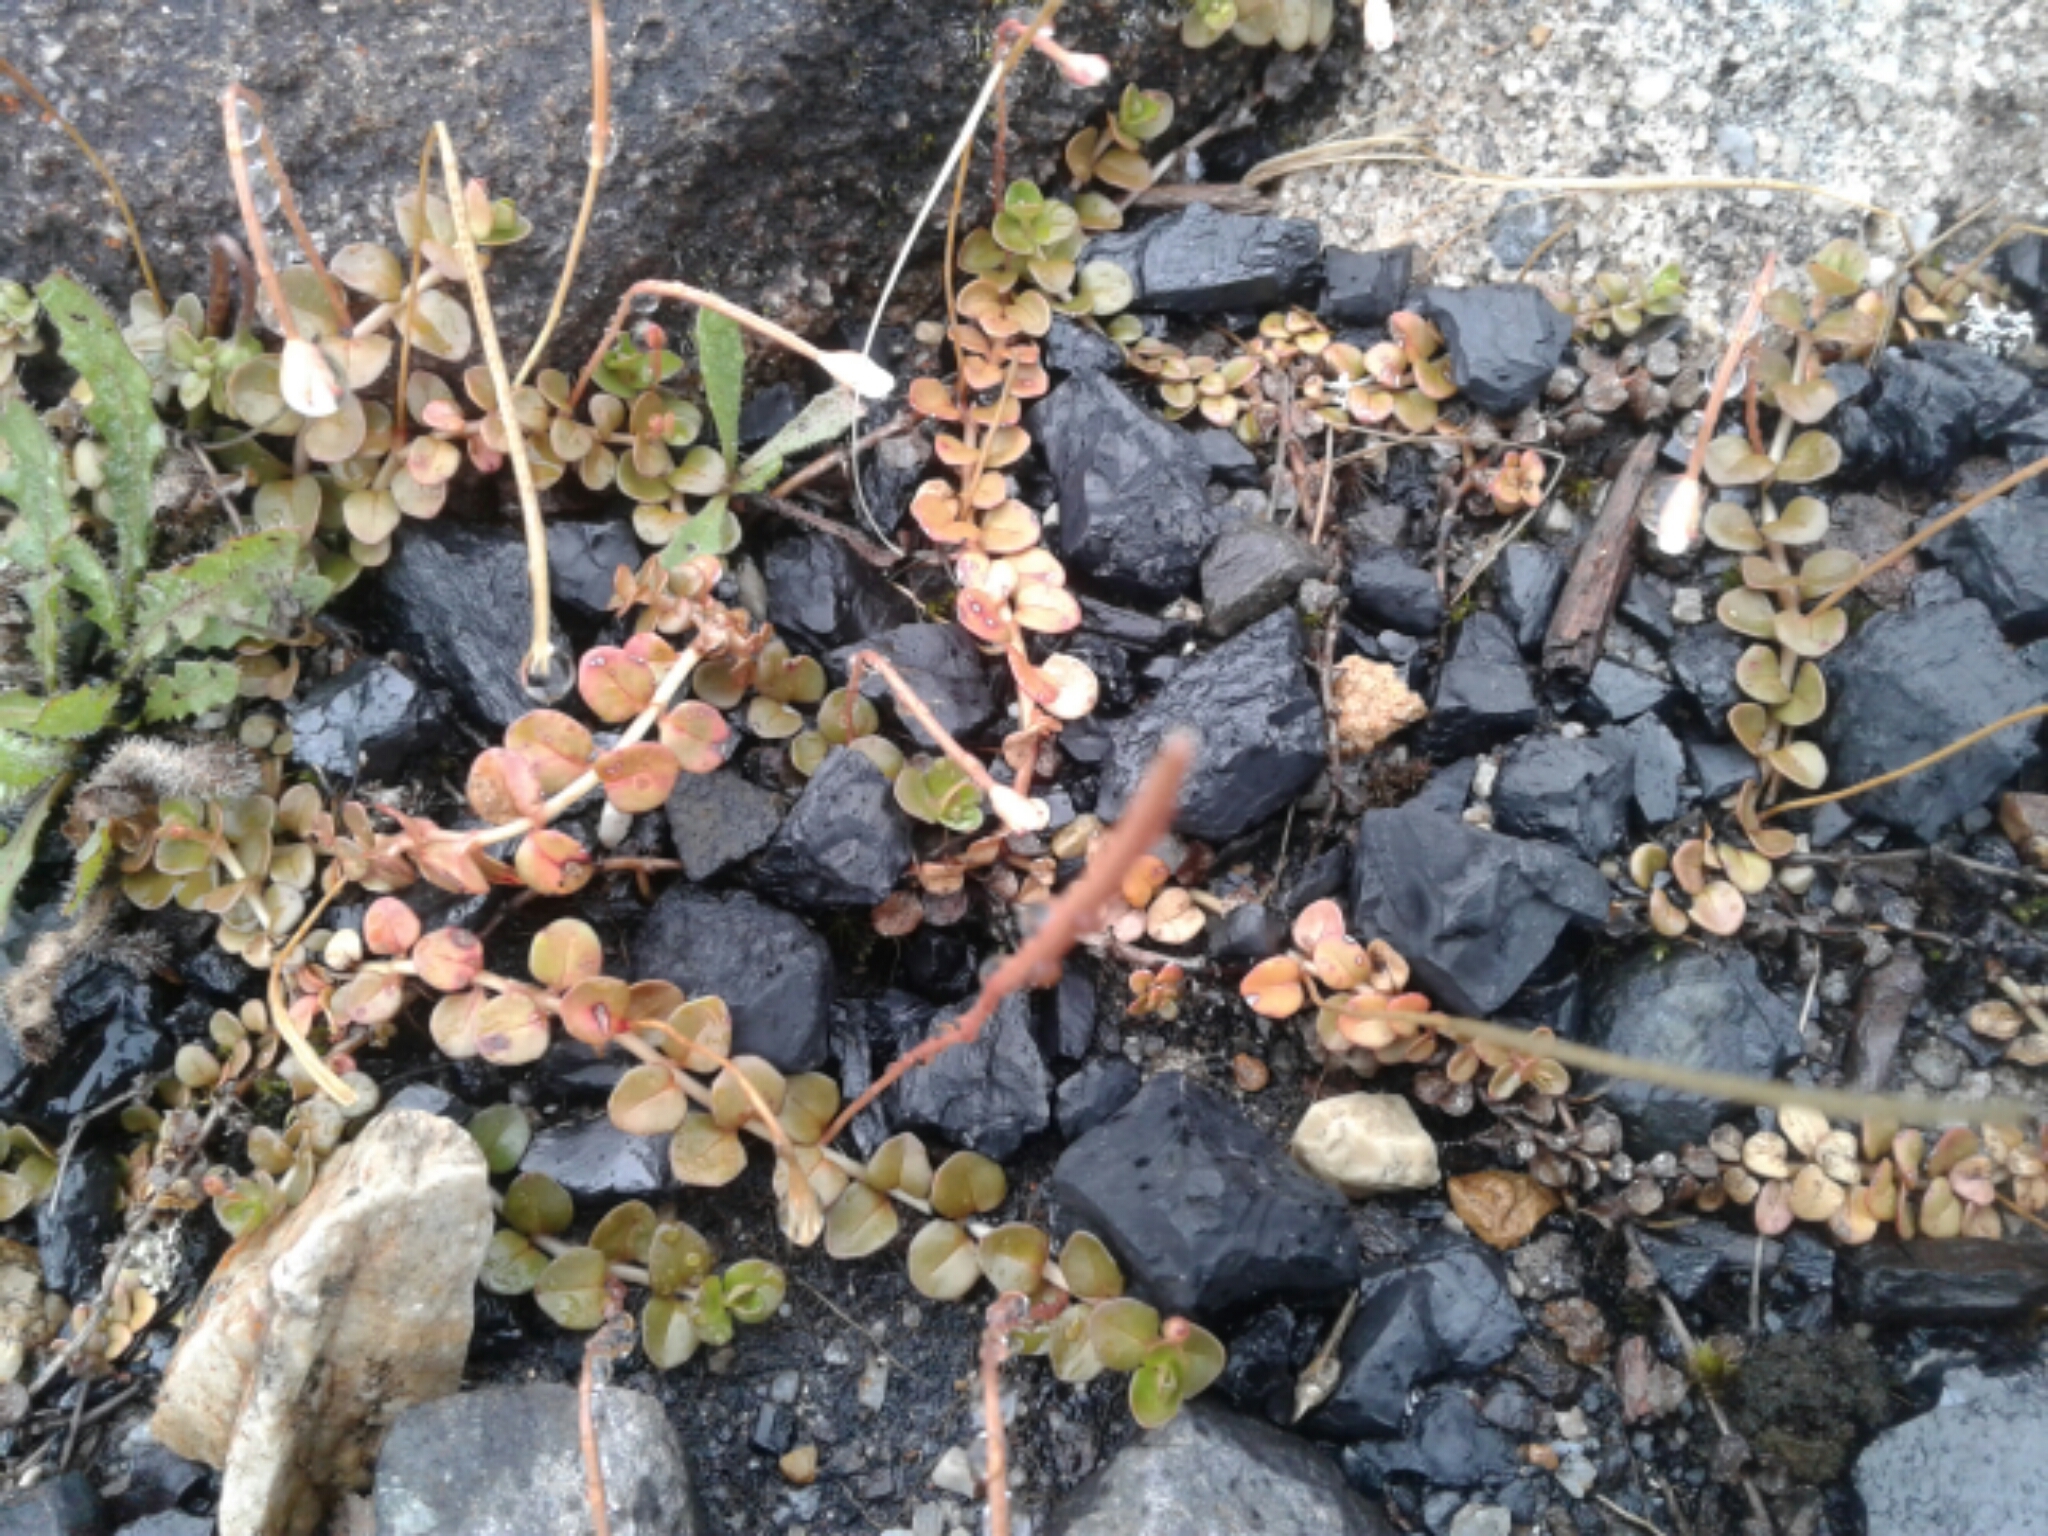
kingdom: Plantae
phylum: Tracheophyta
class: Magnoliopsida
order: Myrtales
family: Onagraceae
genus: Epilobium
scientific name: Epilobium brunnescens
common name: New zealand willowherb
